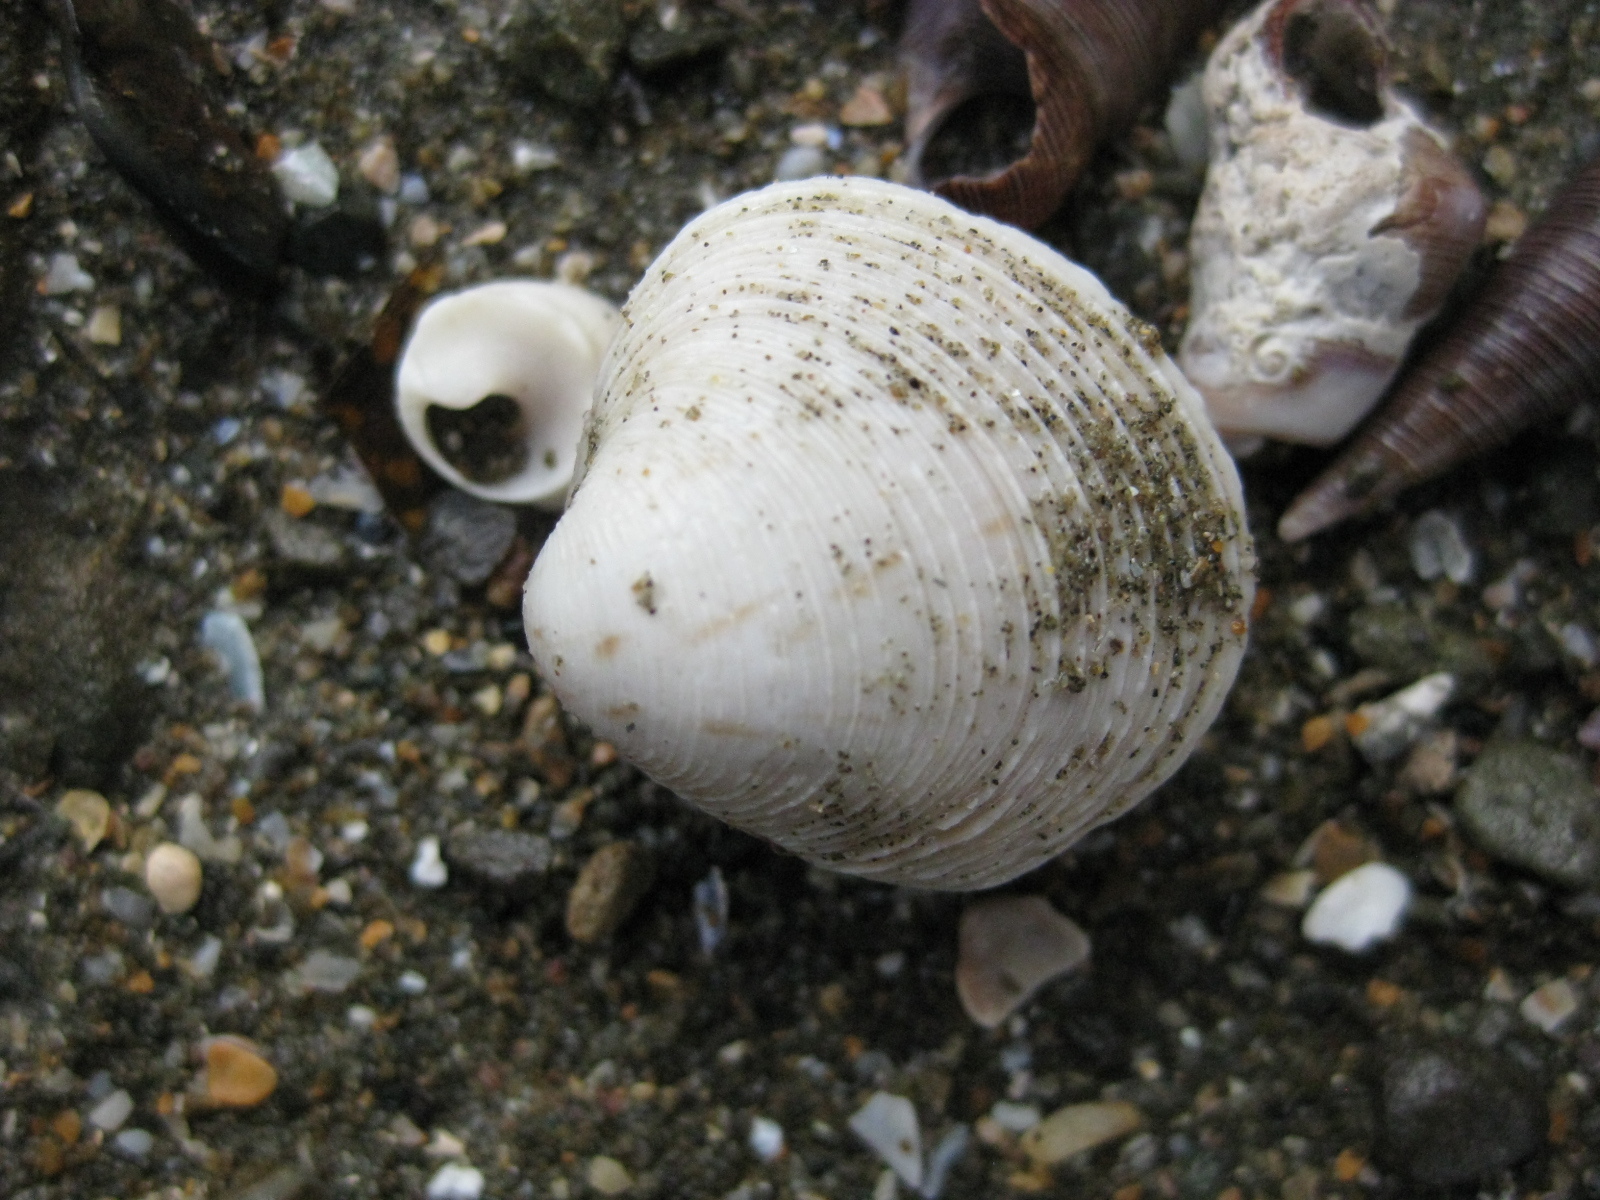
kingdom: Animalia
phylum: Mollusca
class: Bivalvia
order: Venerida
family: Veneridae
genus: Dosina
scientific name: Dosina mactracea
